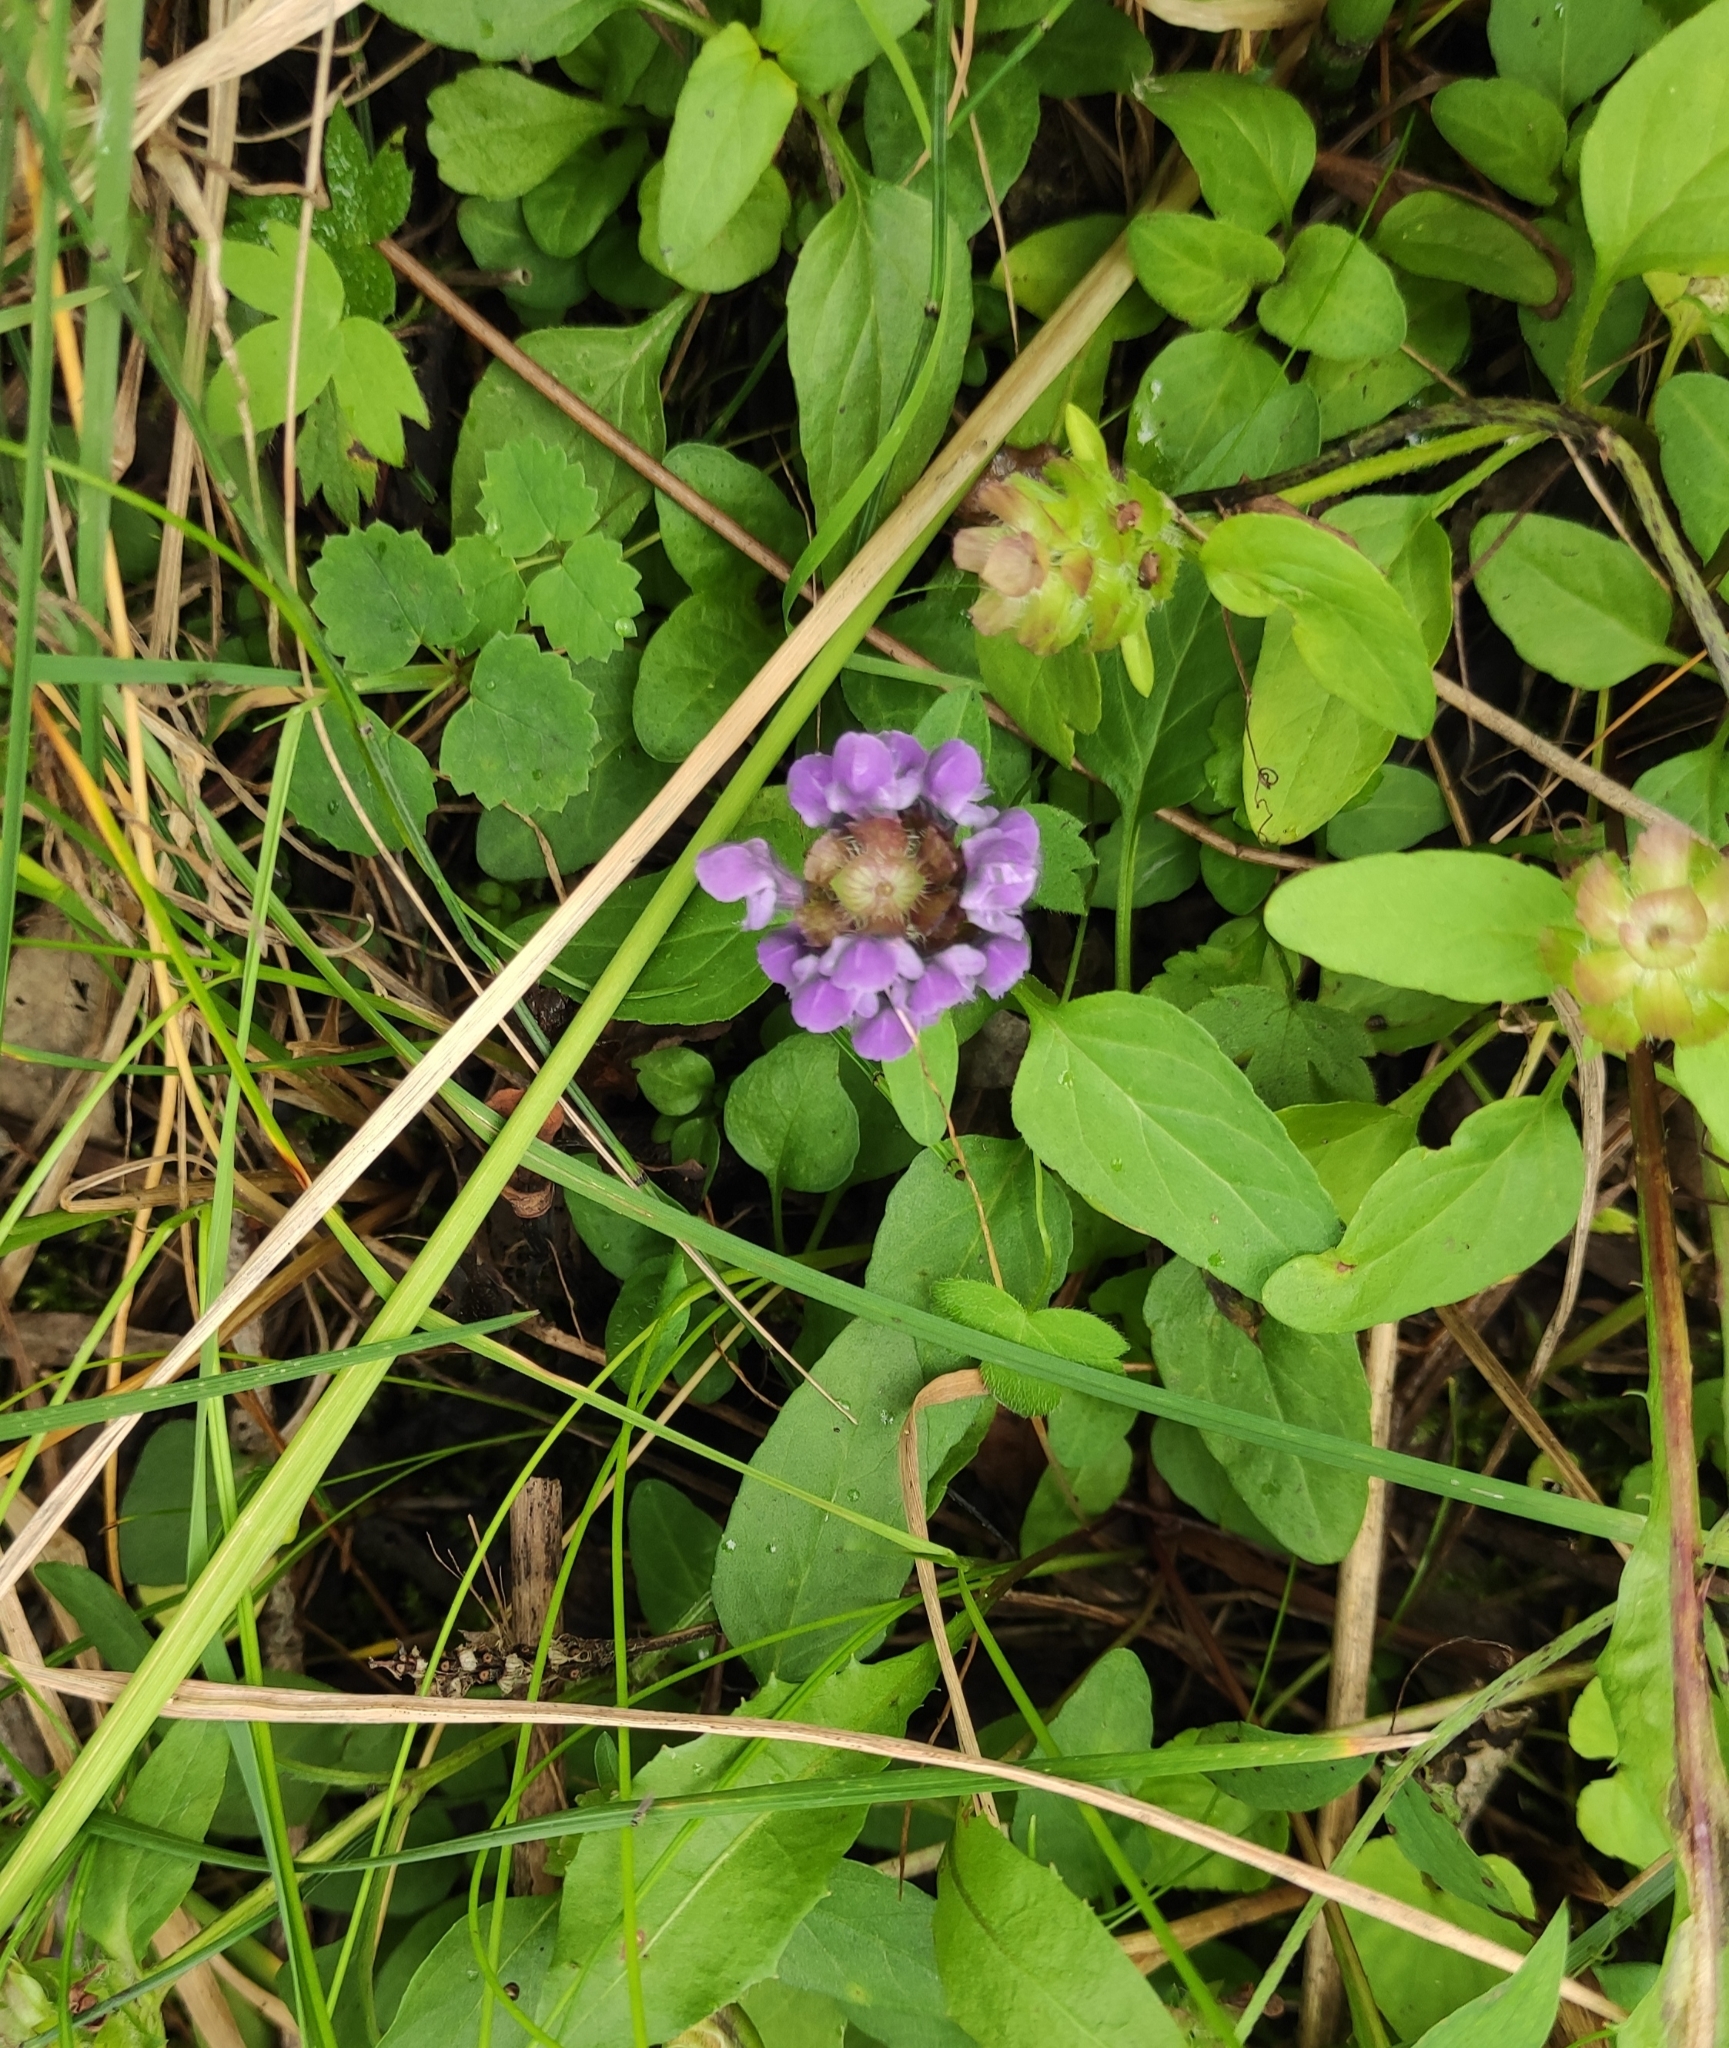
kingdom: Plantae
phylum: Tracheophyta
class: Magnoliopsida
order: Lamiales
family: Lamiaceae
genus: Prunella
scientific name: Prunella vulgaris
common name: Heal-all
